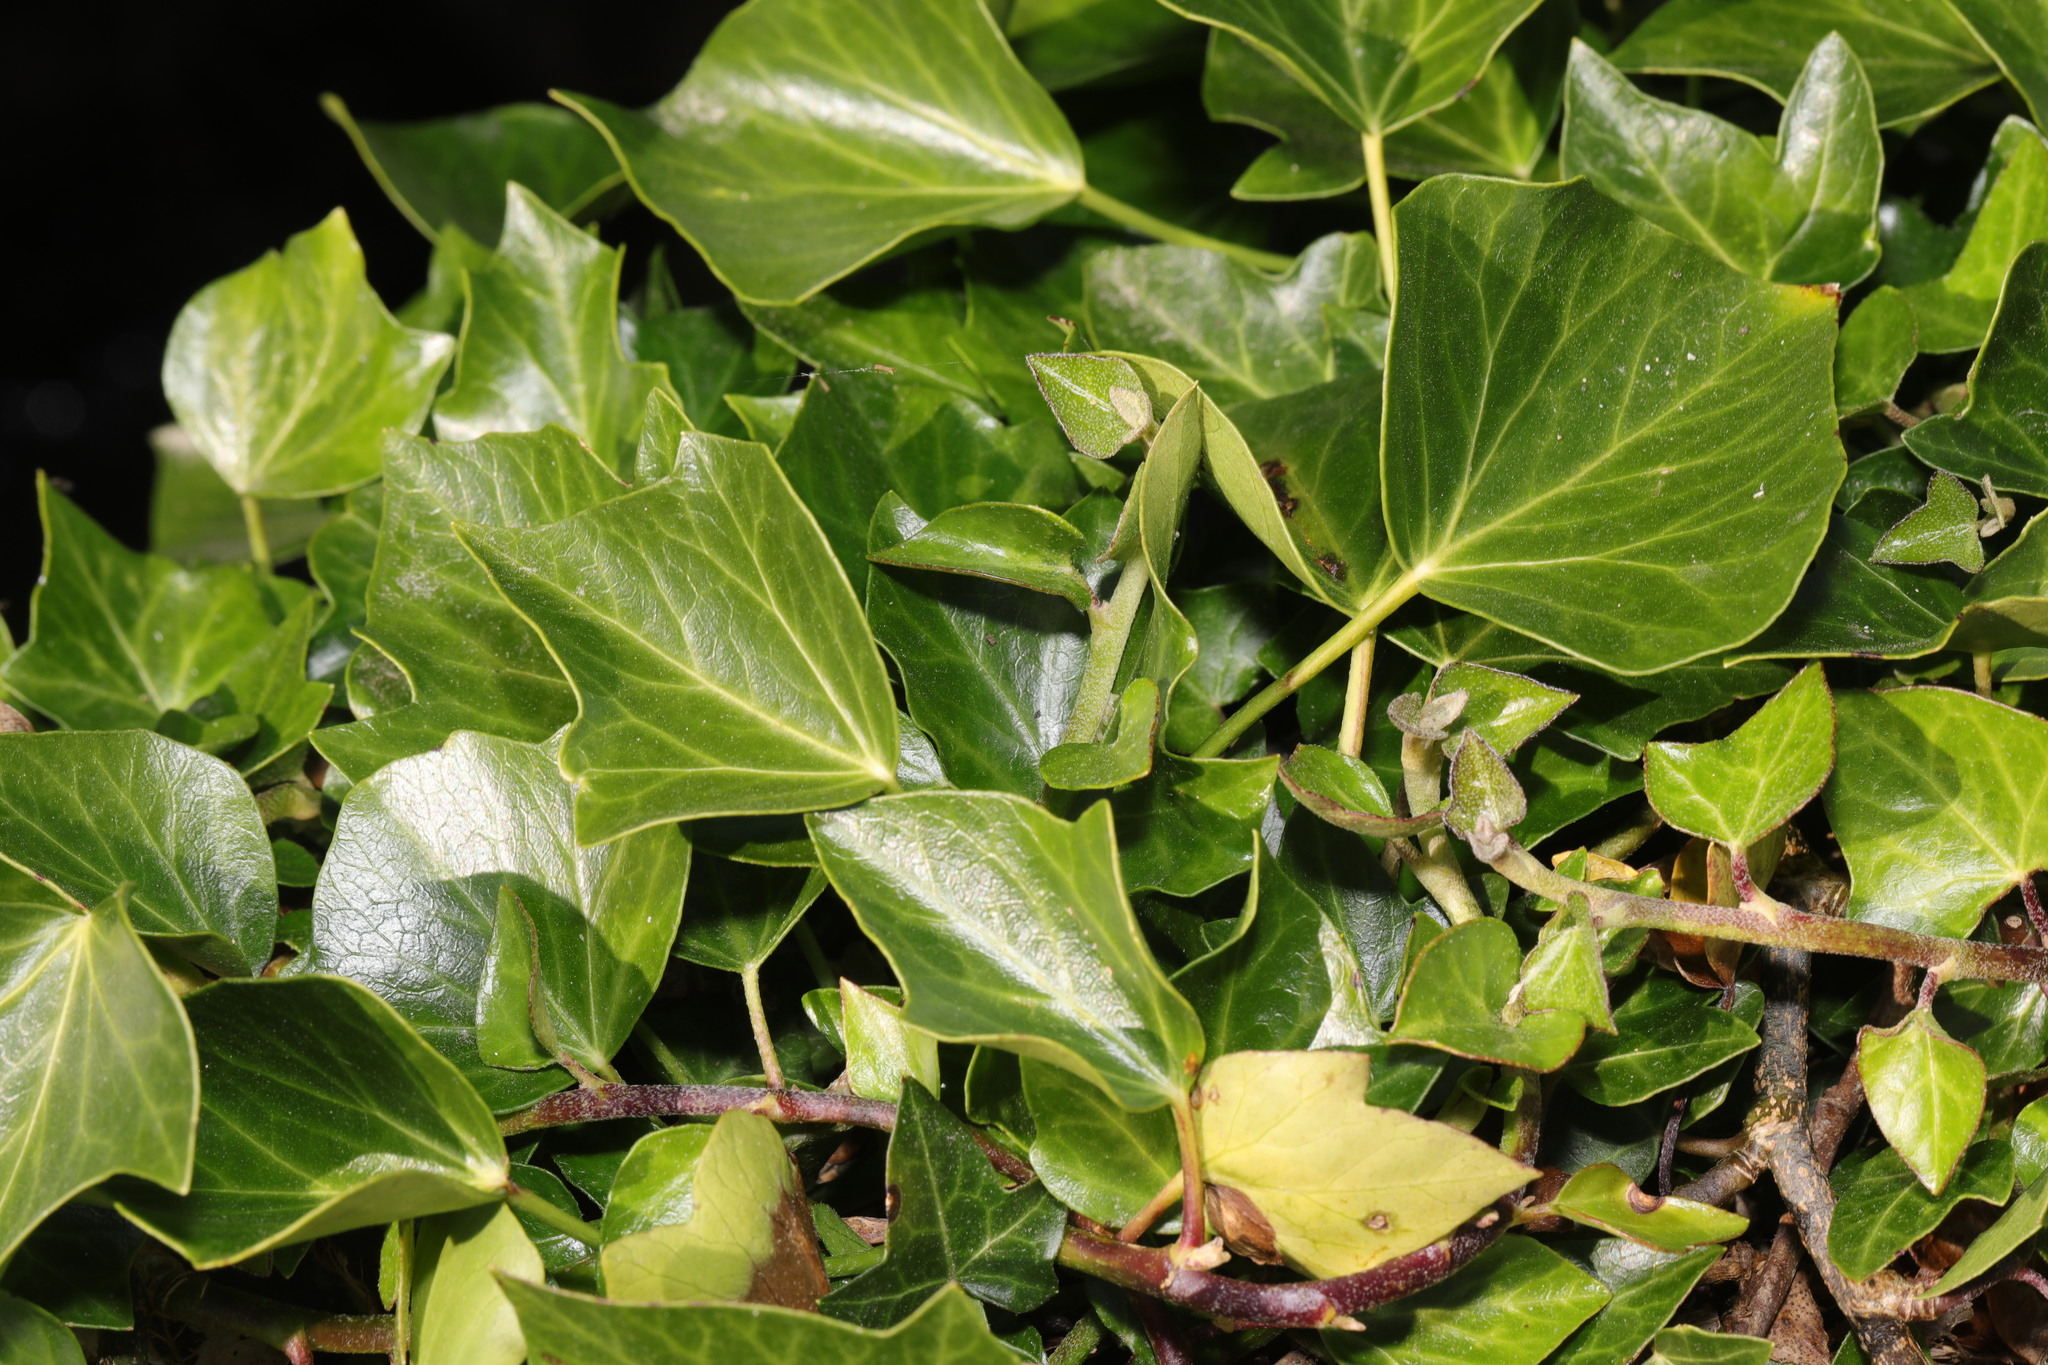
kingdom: Plantae
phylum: Tracheophyta
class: Magnoliopsida
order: Apiales
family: Araliaceae
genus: Hedera
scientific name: Hedera helix
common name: Ivy
